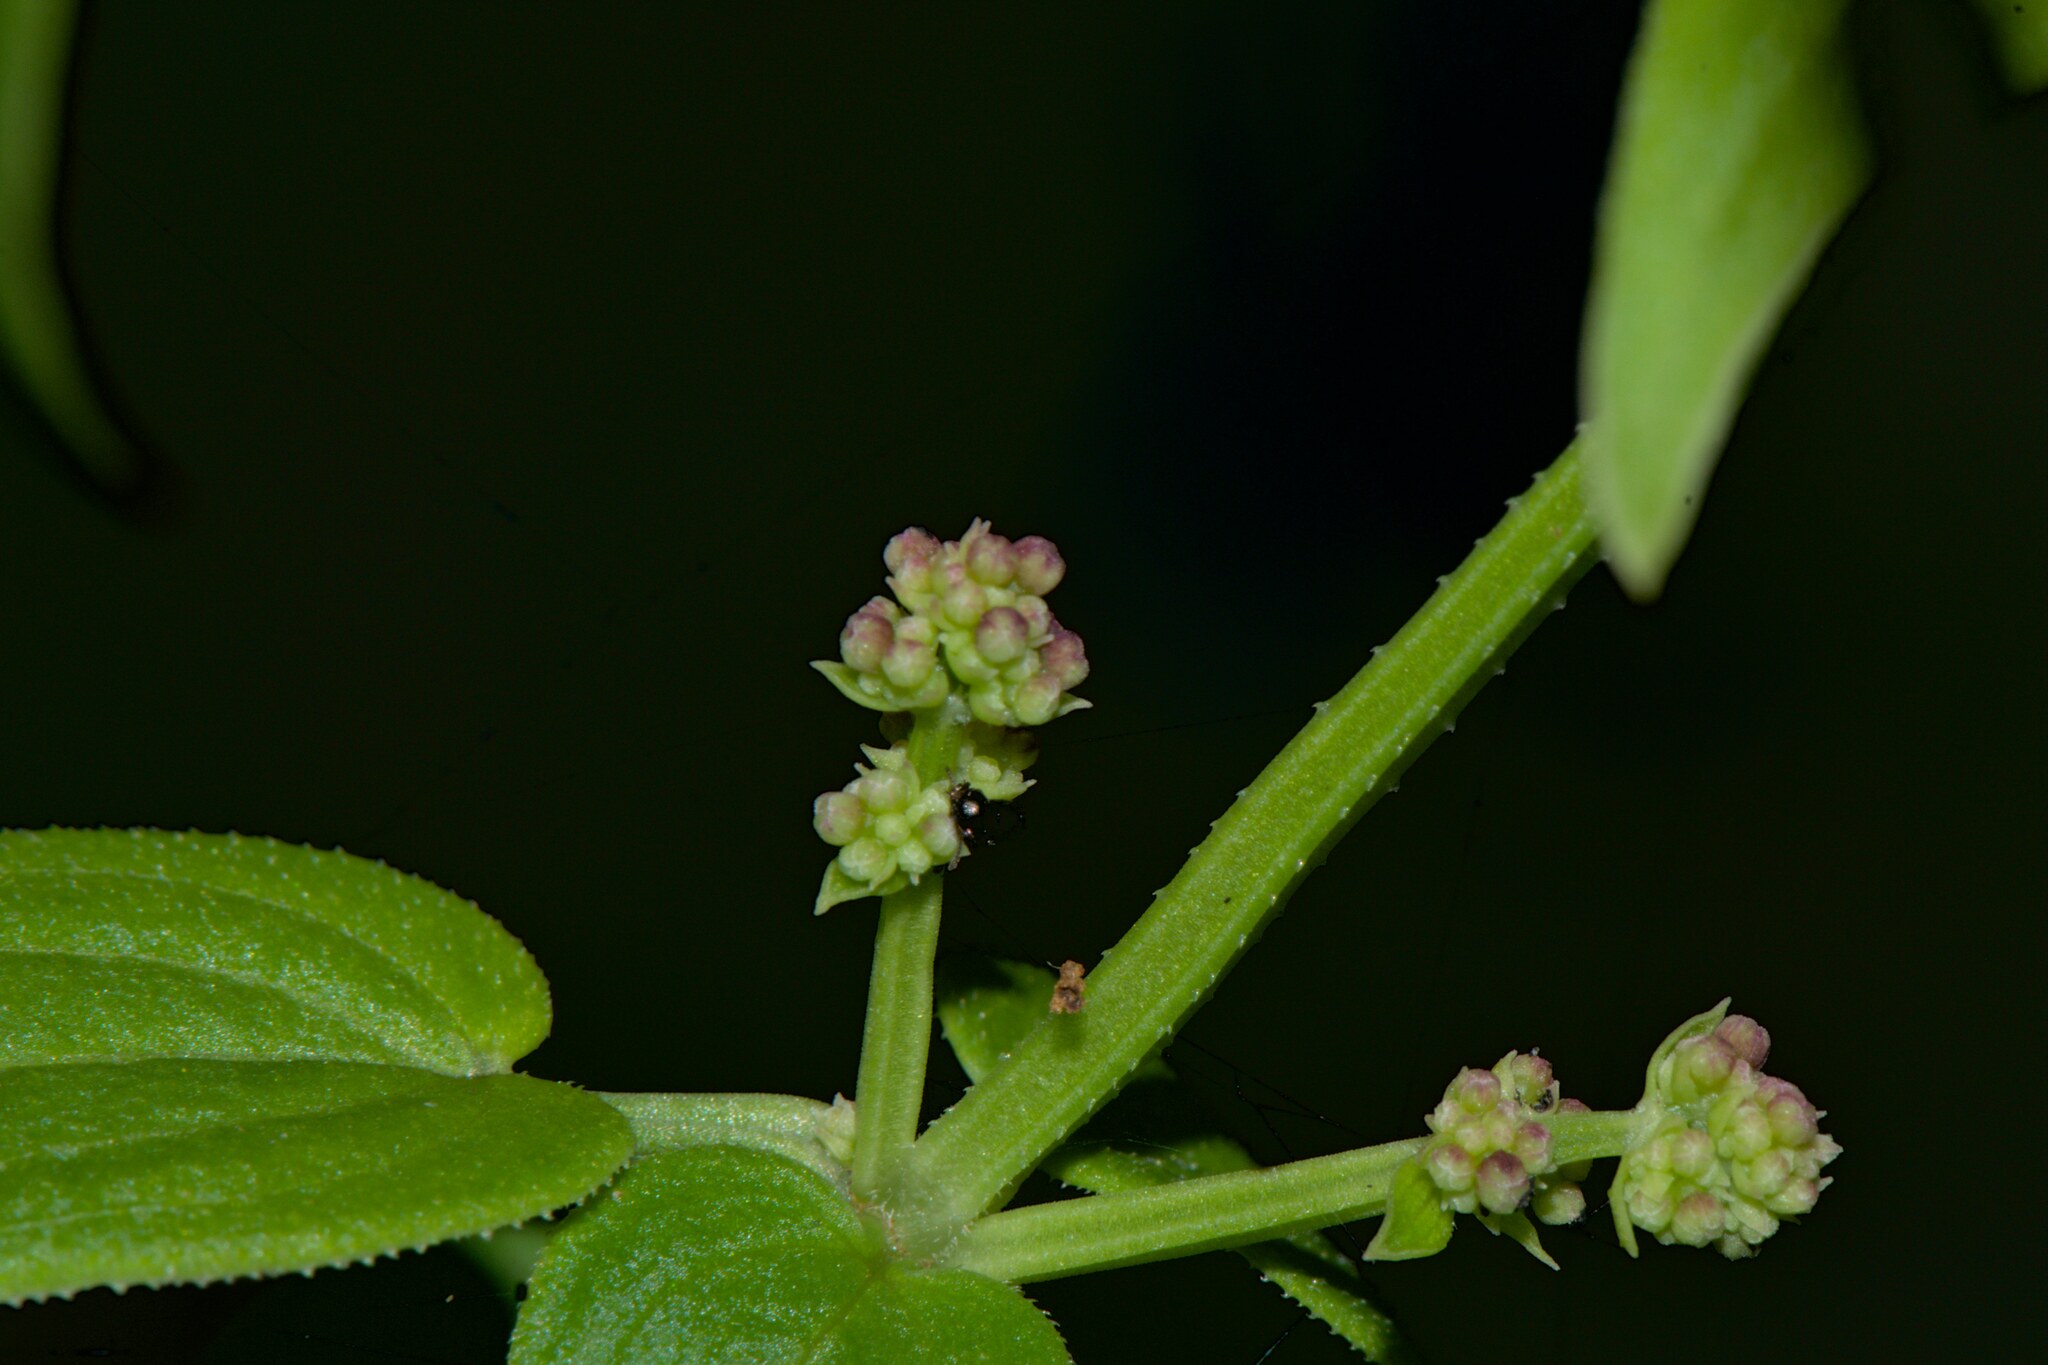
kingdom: Plantae
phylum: Tracheophyta
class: Magnoliopsida
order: Gentianales
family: Rubiaceae
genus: Rubia
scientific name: Rubia cordifolia
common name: Indian madder
